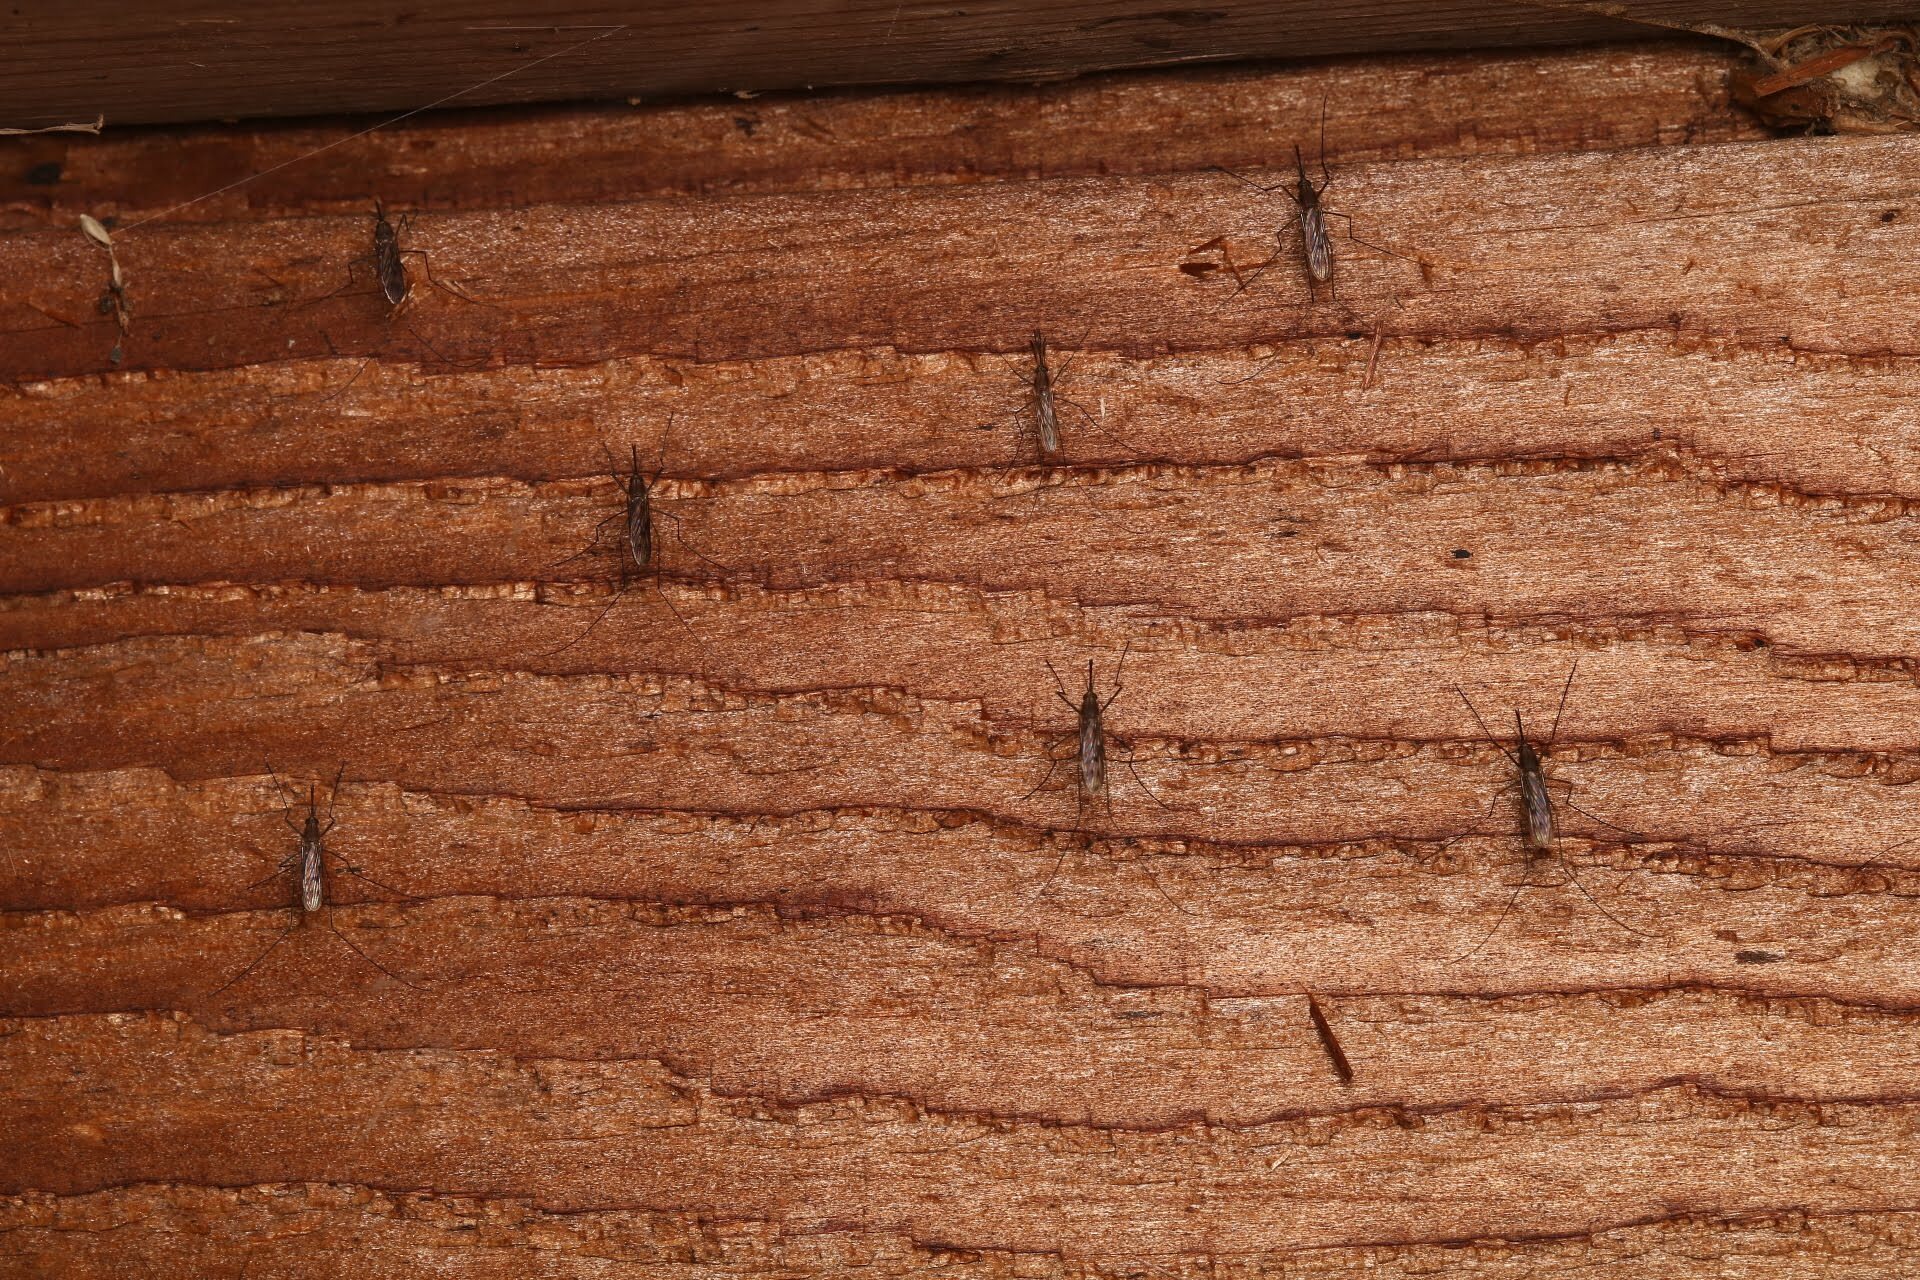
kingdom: Animalia
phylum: Arthropoda
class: Insecta
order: Diptera
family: Culicidae
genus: Anopheles
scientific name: Anopheles
